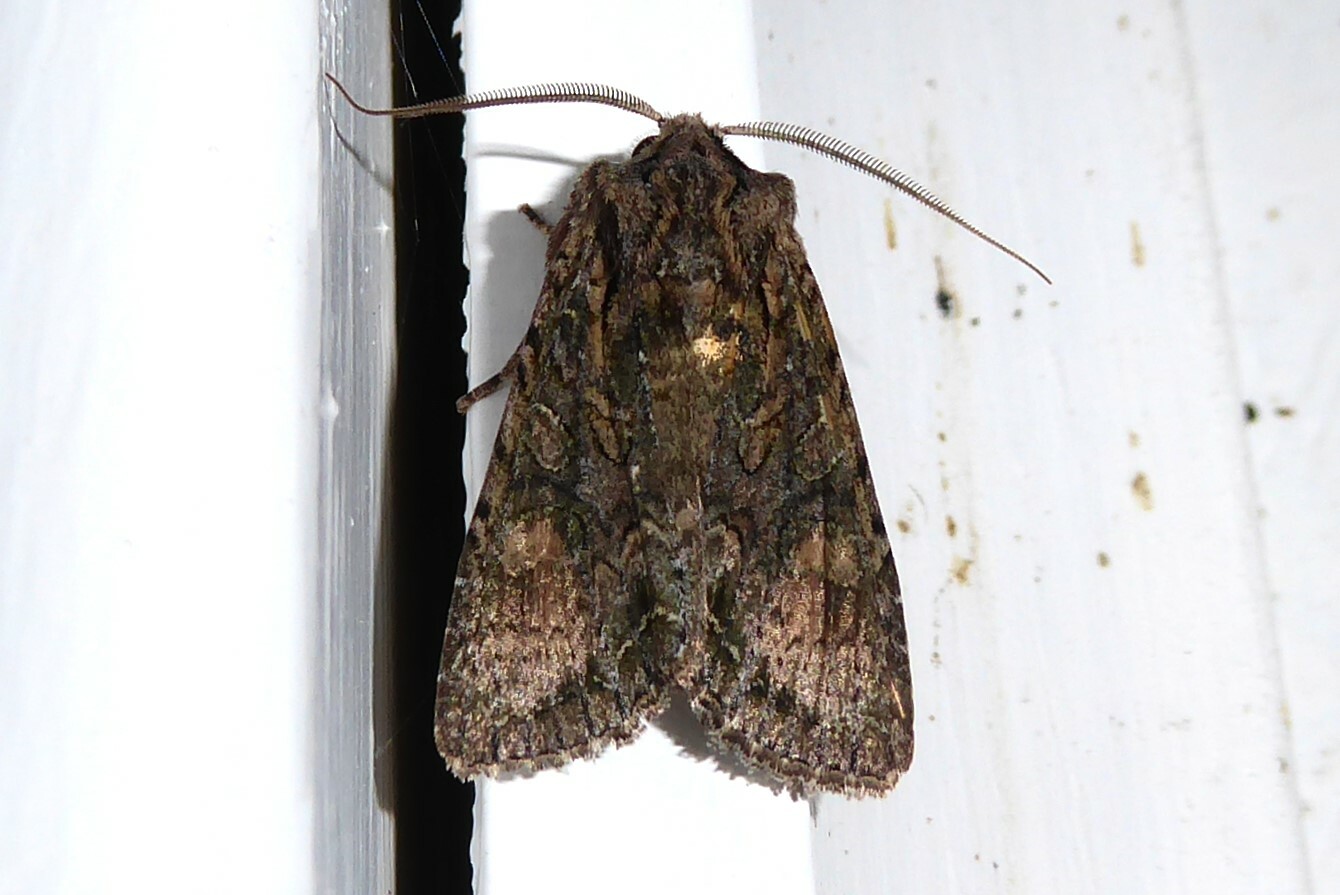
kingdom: Animalia
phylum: Arthropoda
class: Insecta
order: Lepidoptera
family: Noctuidae
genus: Ichneutica
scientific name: Ichneutica mutans
